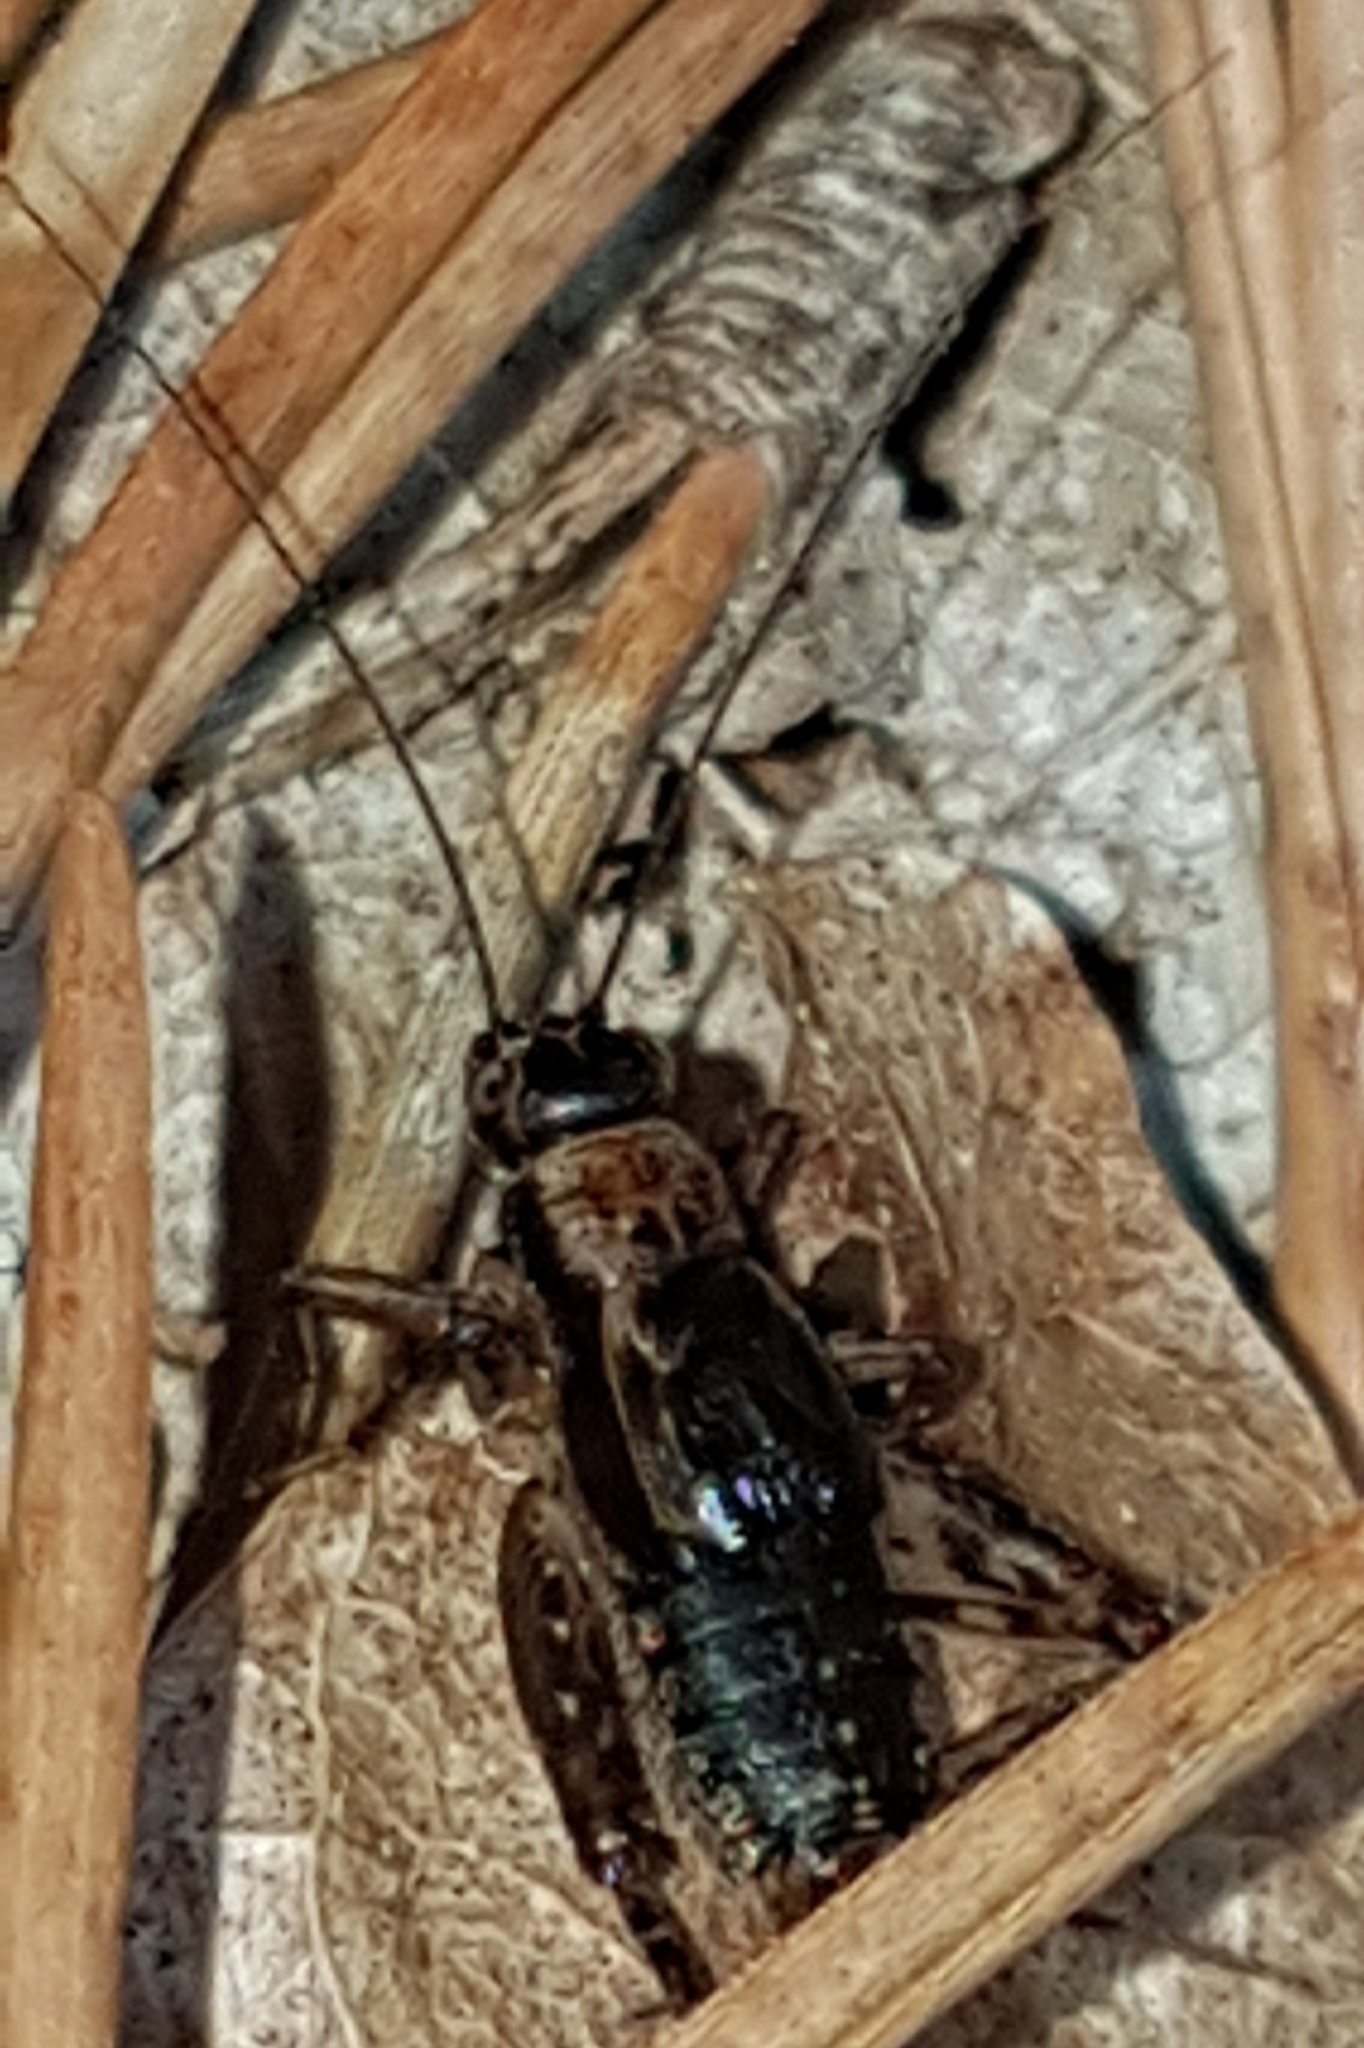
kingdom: Animalia
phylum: Arthropoda
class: Insecta
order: Orthoptera
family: Trigonidiidae
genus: Nemobius
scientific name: Nemobius sylvestris
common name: Wood-cricket
